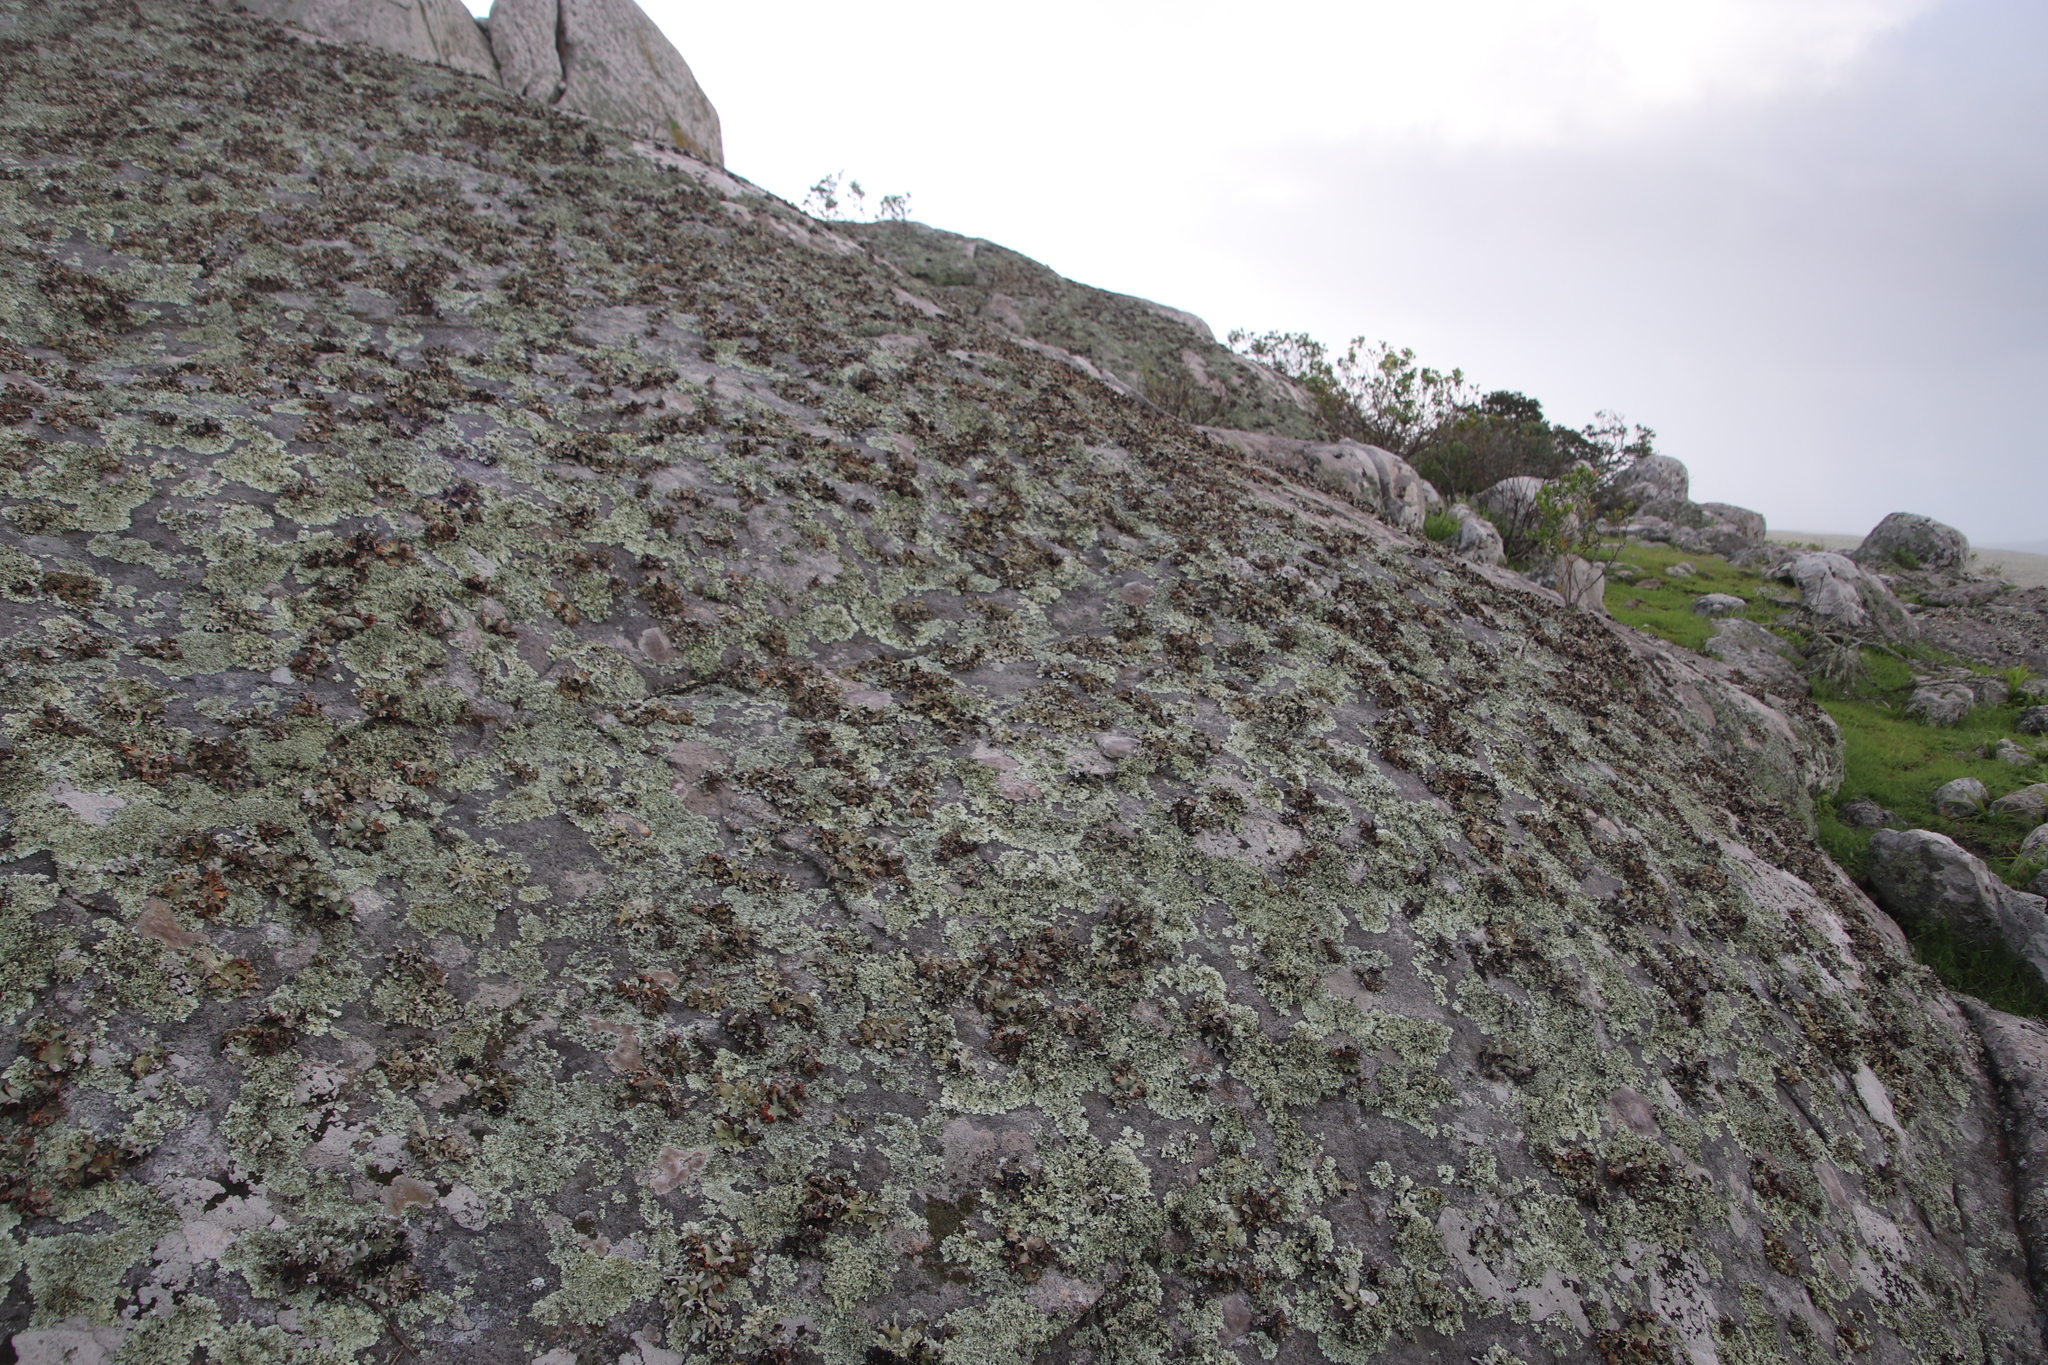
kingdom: Fungi
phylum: Ascomycota
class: Lecanoromycetes
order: Lecanorales
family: Parmeliaceae
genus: Xanthoparmelia
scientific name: Xanthoparmelia frondosa
